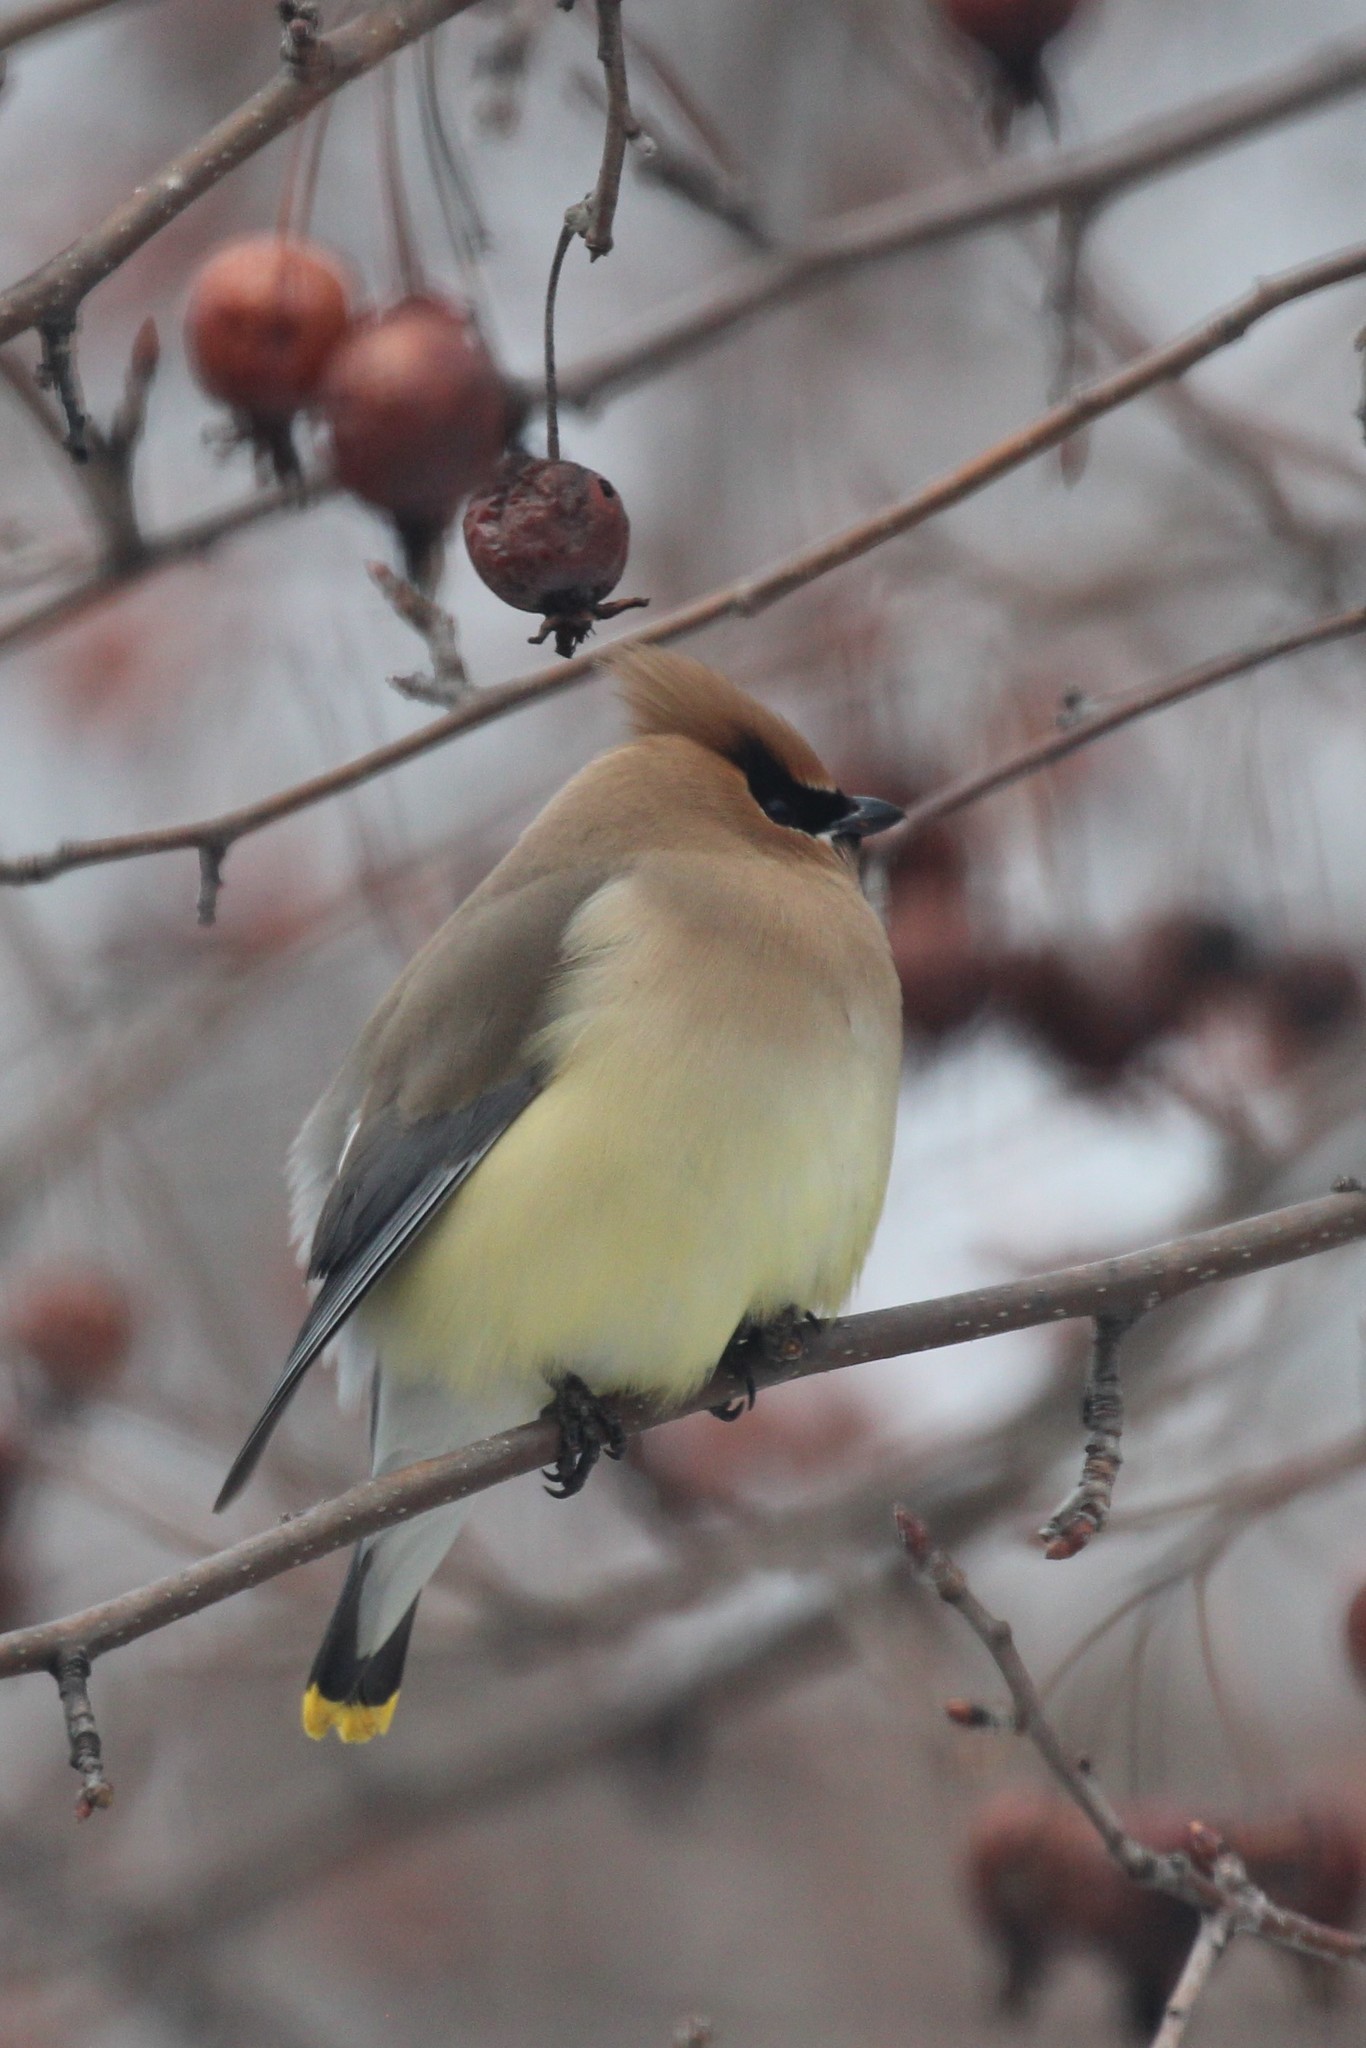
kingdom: Animalia
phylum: Chordata
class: Aves
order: Passeriformes
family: Bombycillidae
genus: Bombycilla
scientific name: Bombycilla cedrorum
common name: Cedar waxwing
